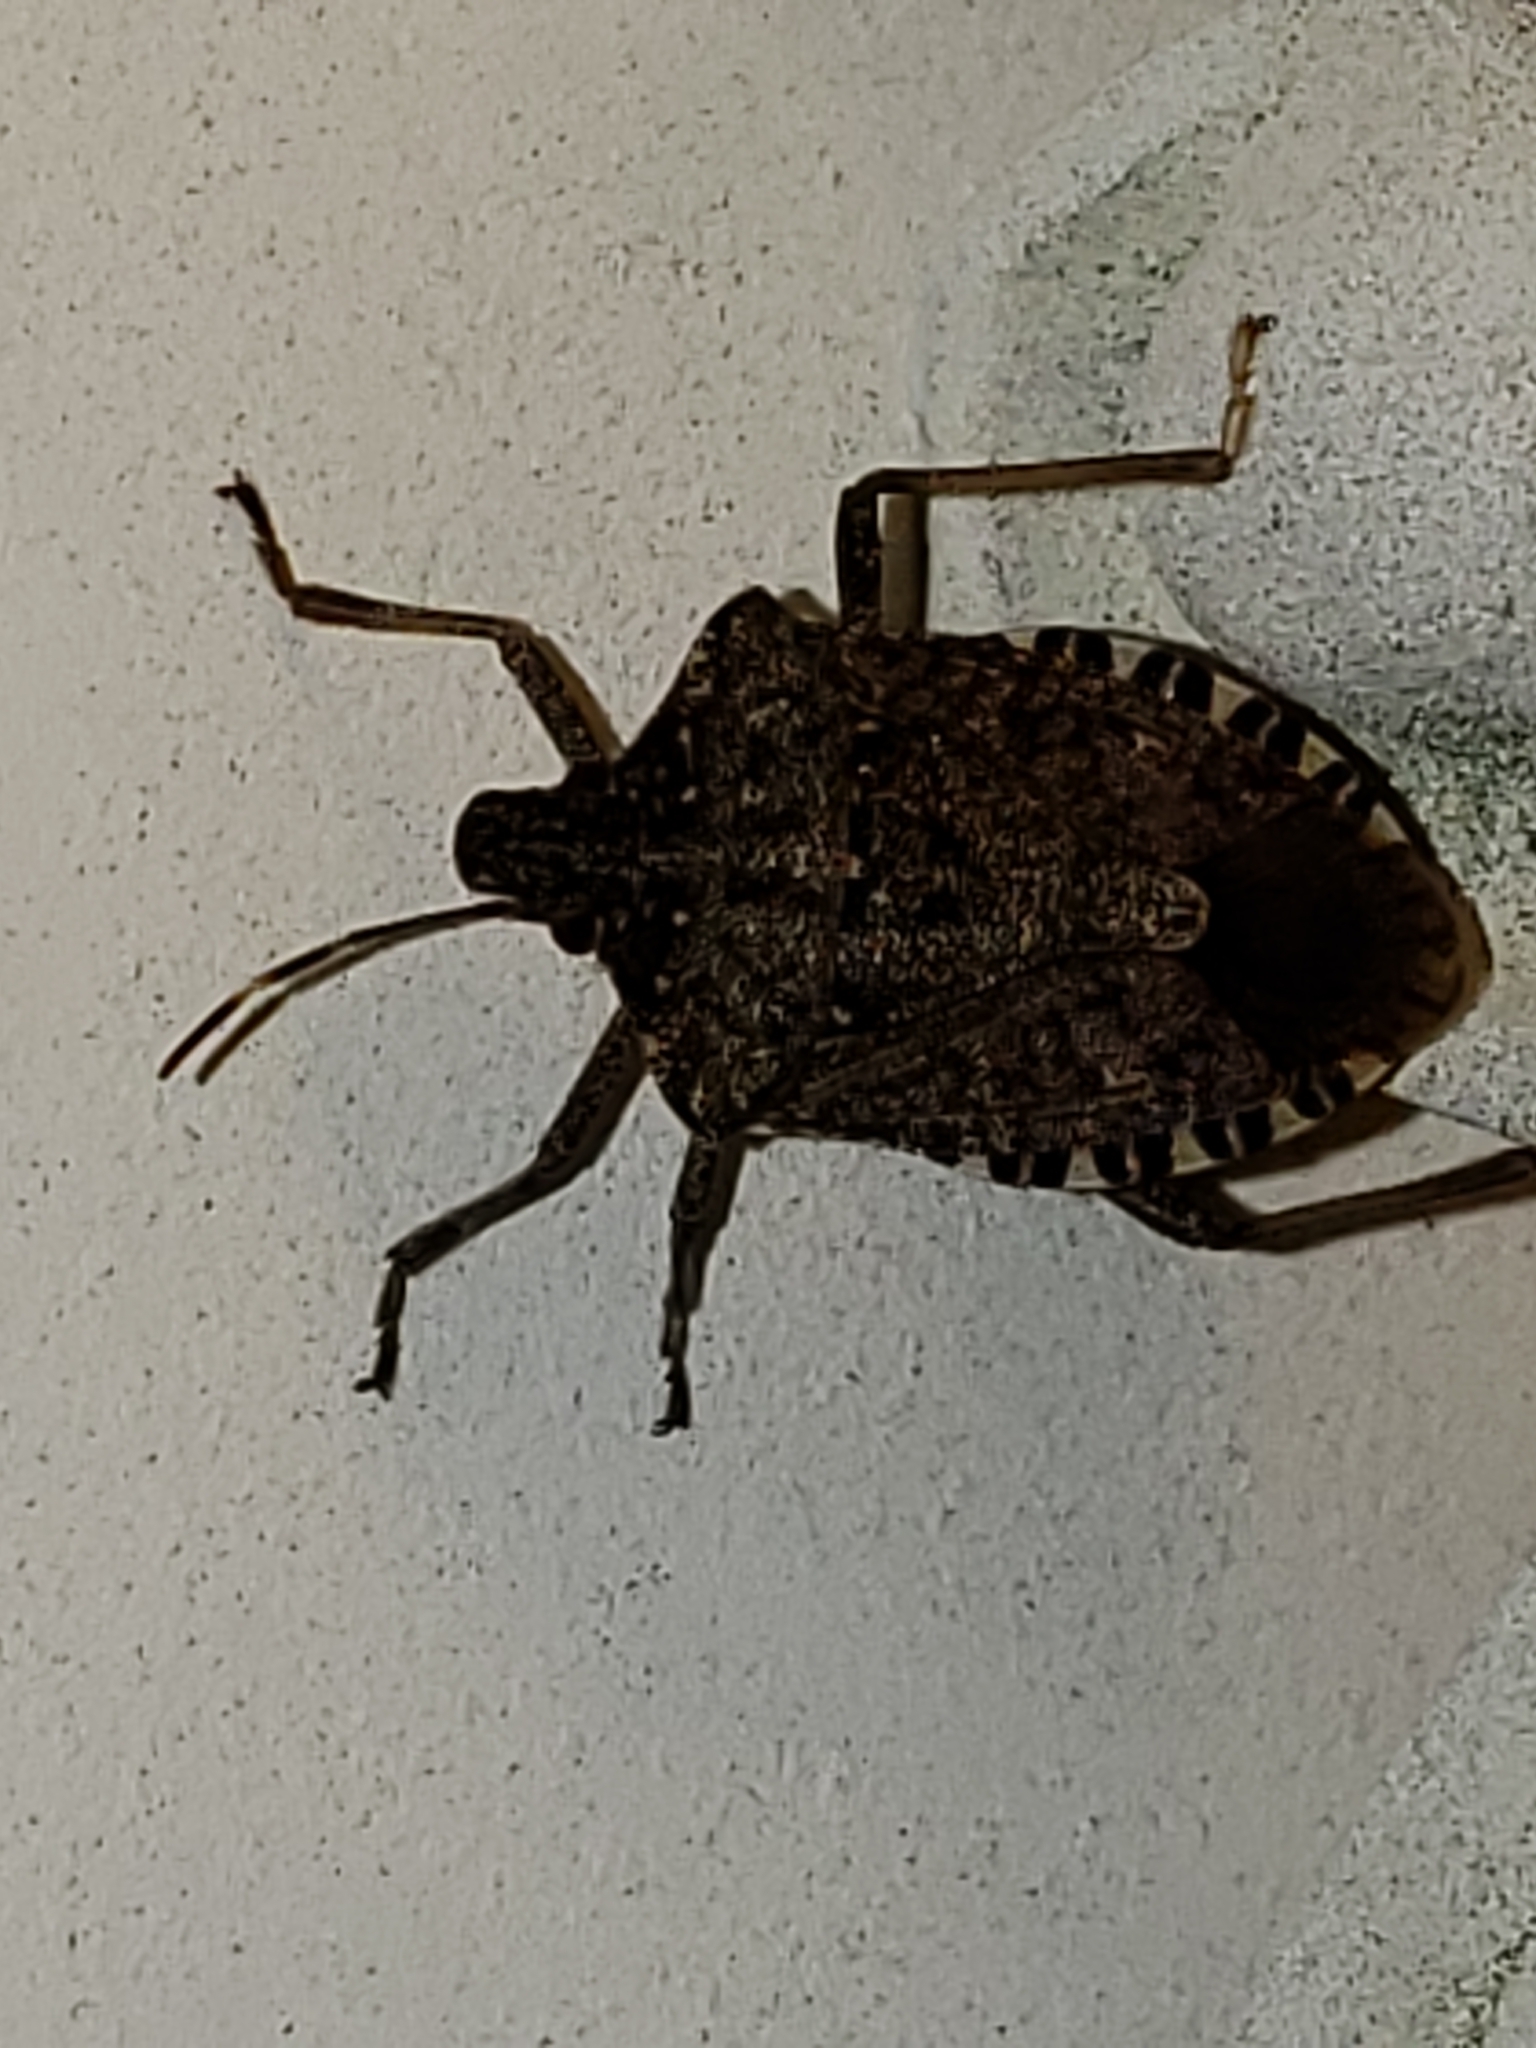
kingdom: Animalia
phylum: Arthropoda
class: Insecta
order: Hemiptera
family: Pentatomidae
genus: Halyomorpha
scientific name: Halyomorpha halys
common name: Brown marmorated stink bug
